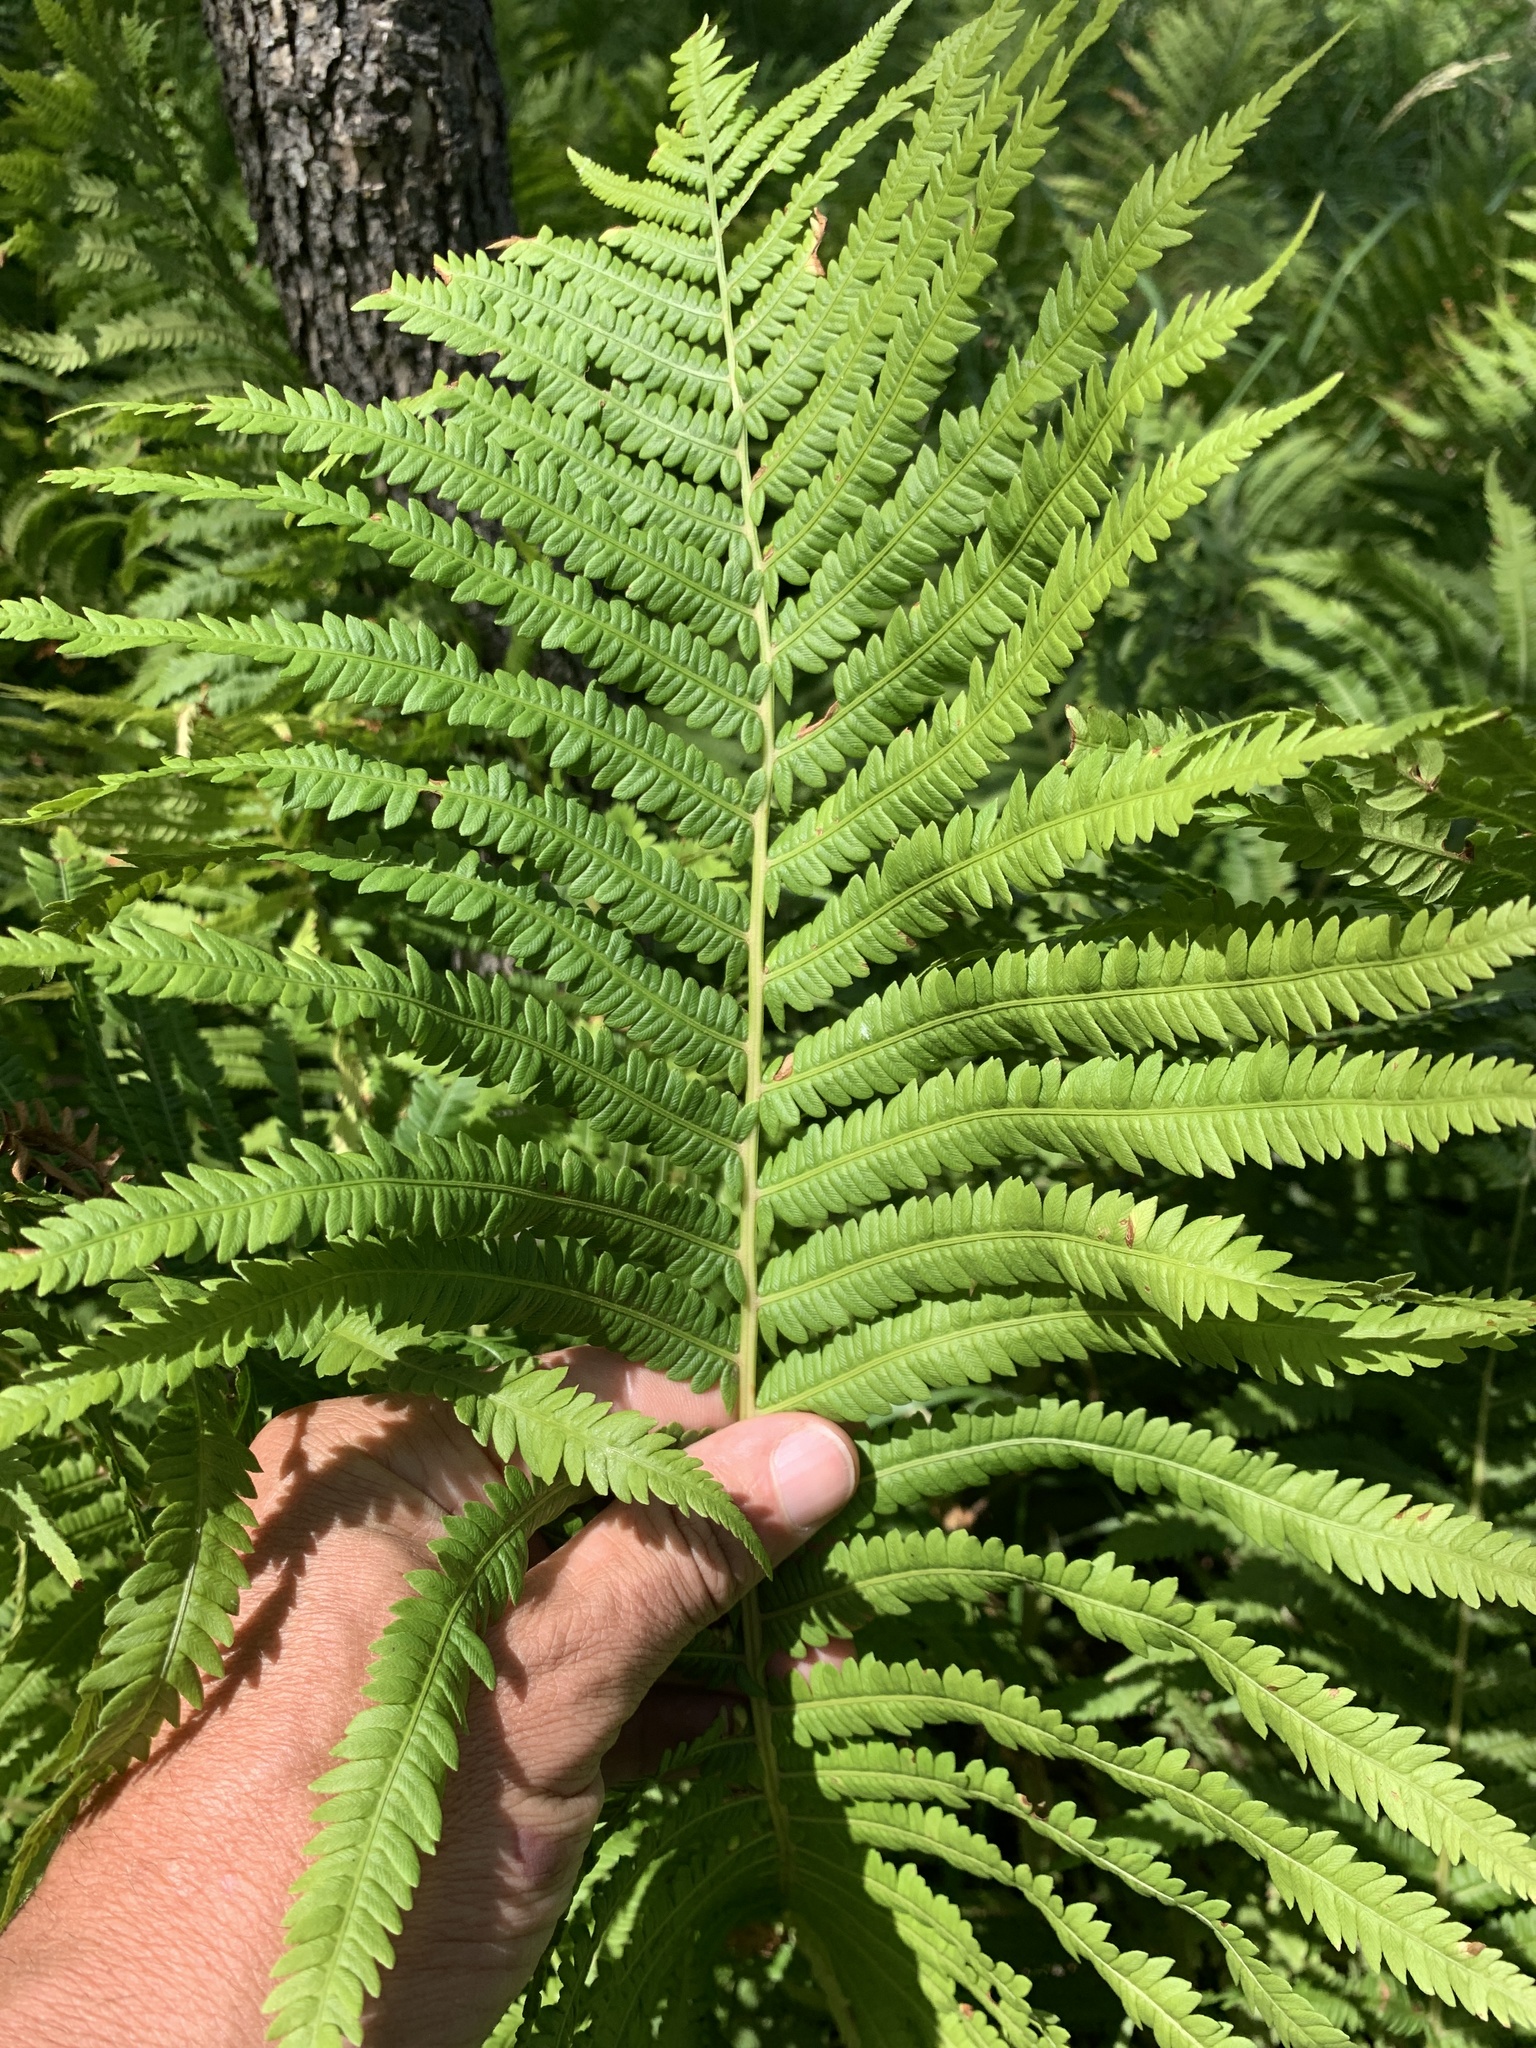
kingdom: Plantae
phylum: Tracheophyta
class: Polypodiopsida
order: Polypodiales
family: Onocleaceae
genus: Matteuccia
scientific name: Matteuccia struthiopteris
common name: Ostrich fern
